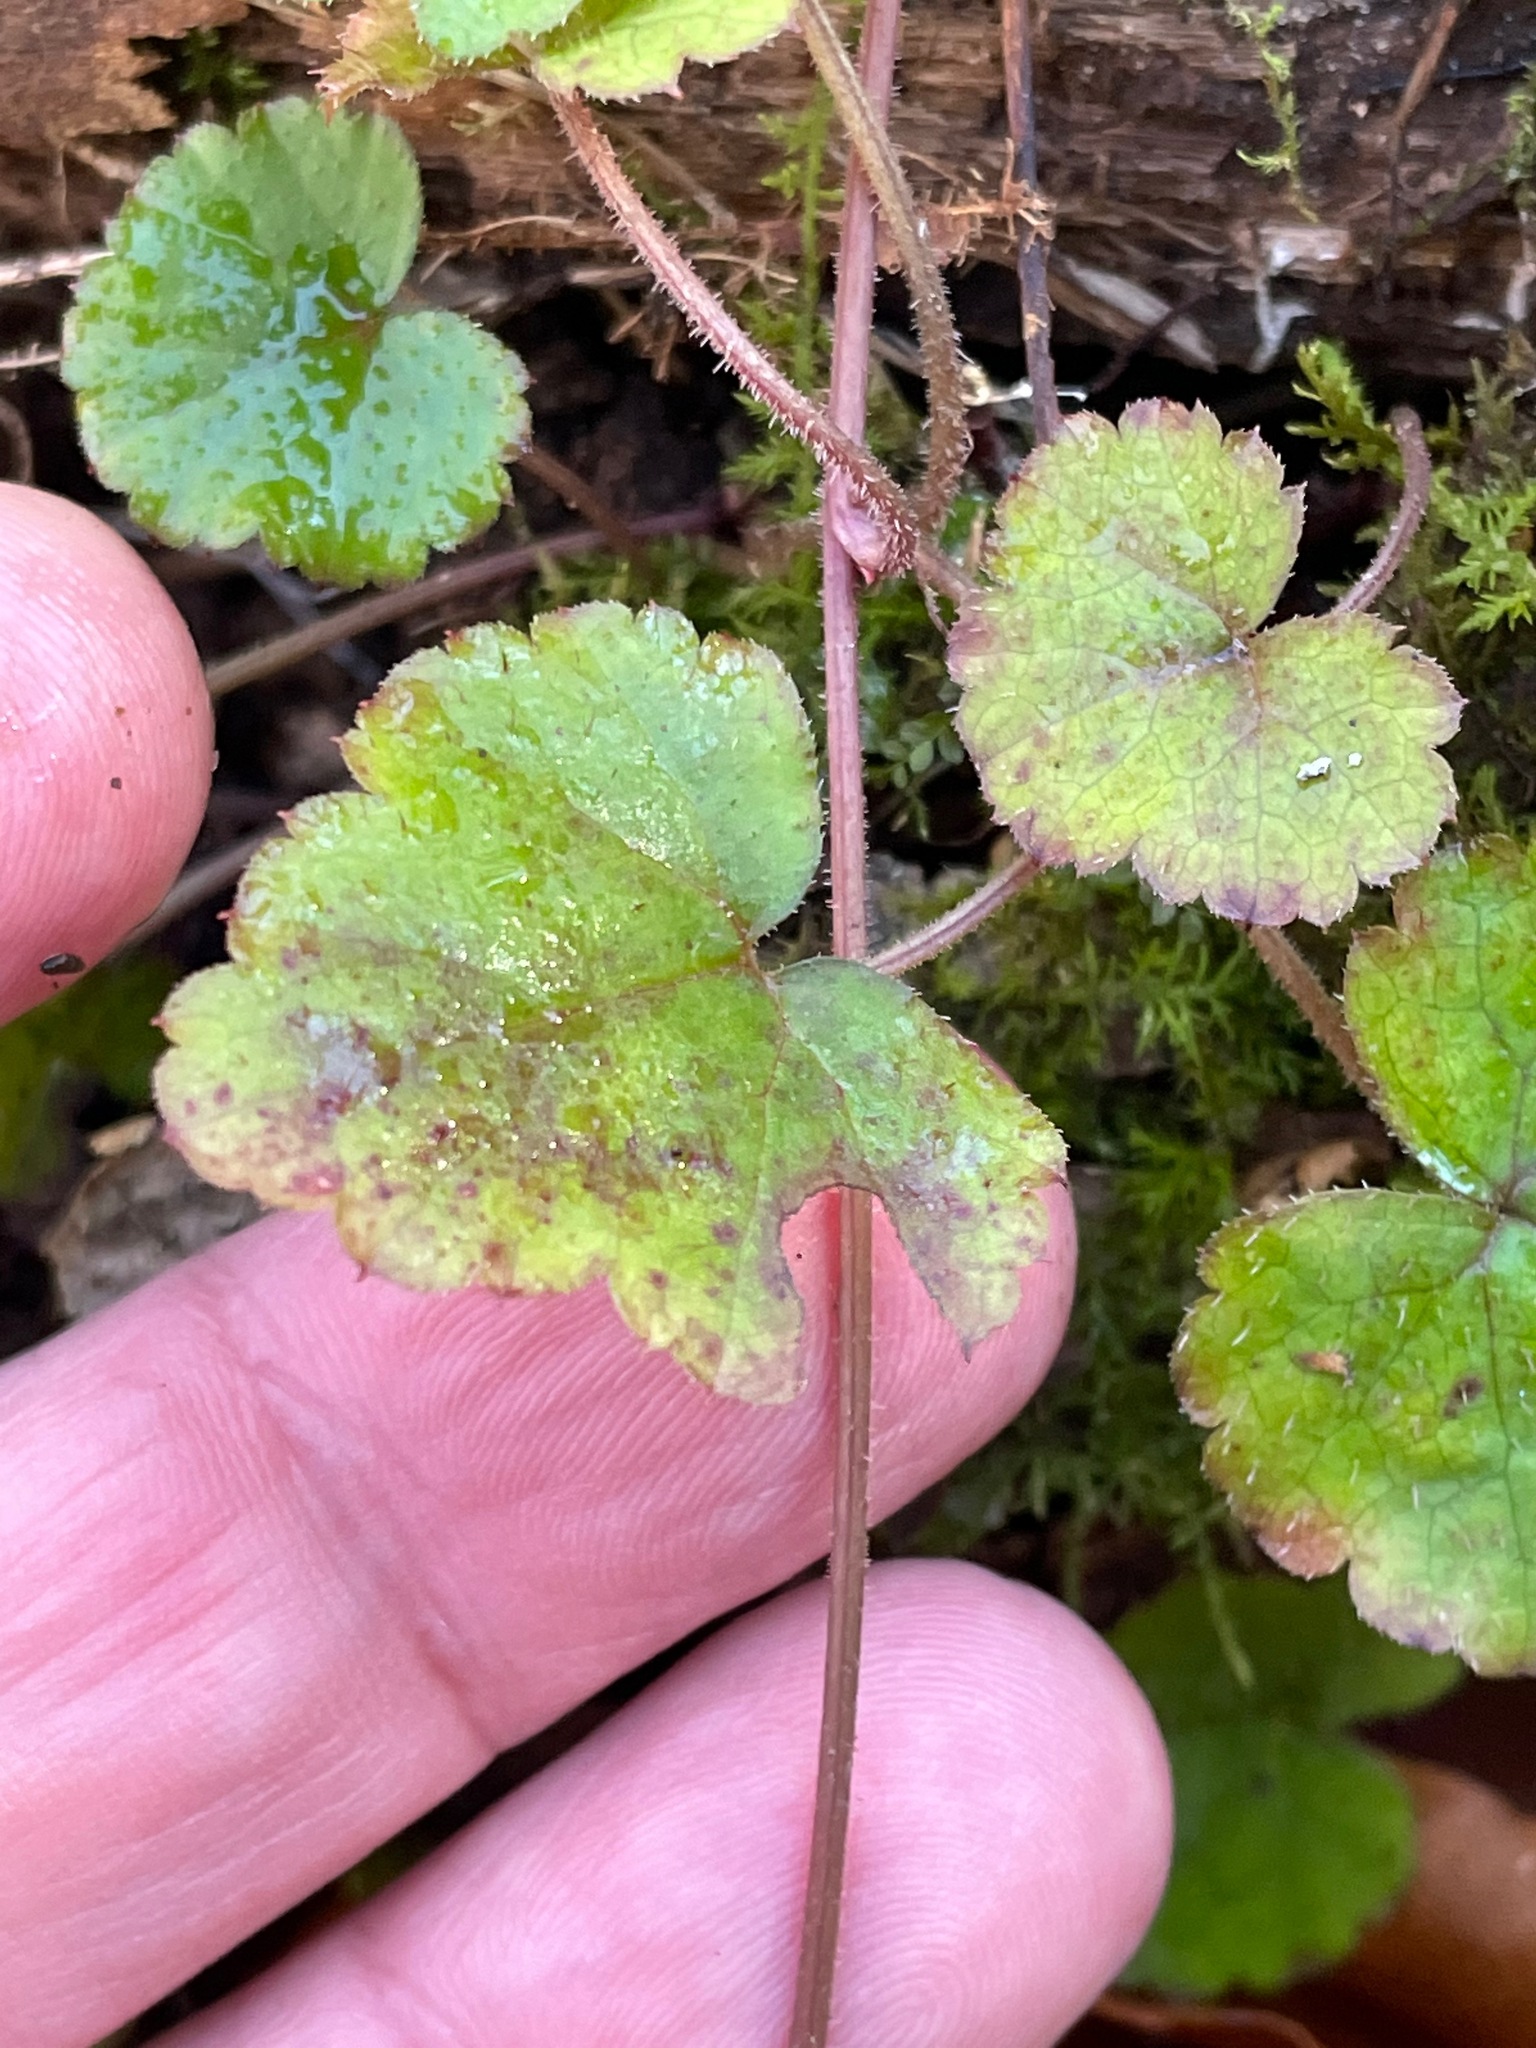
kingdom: Plantae
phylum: Tracheophyta
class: Magnoliopsida
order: Saxifragales
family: Saxifragaceae
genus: Tiarella
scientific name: Tiarella stolonifera
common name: Stoloniferous foamflower
